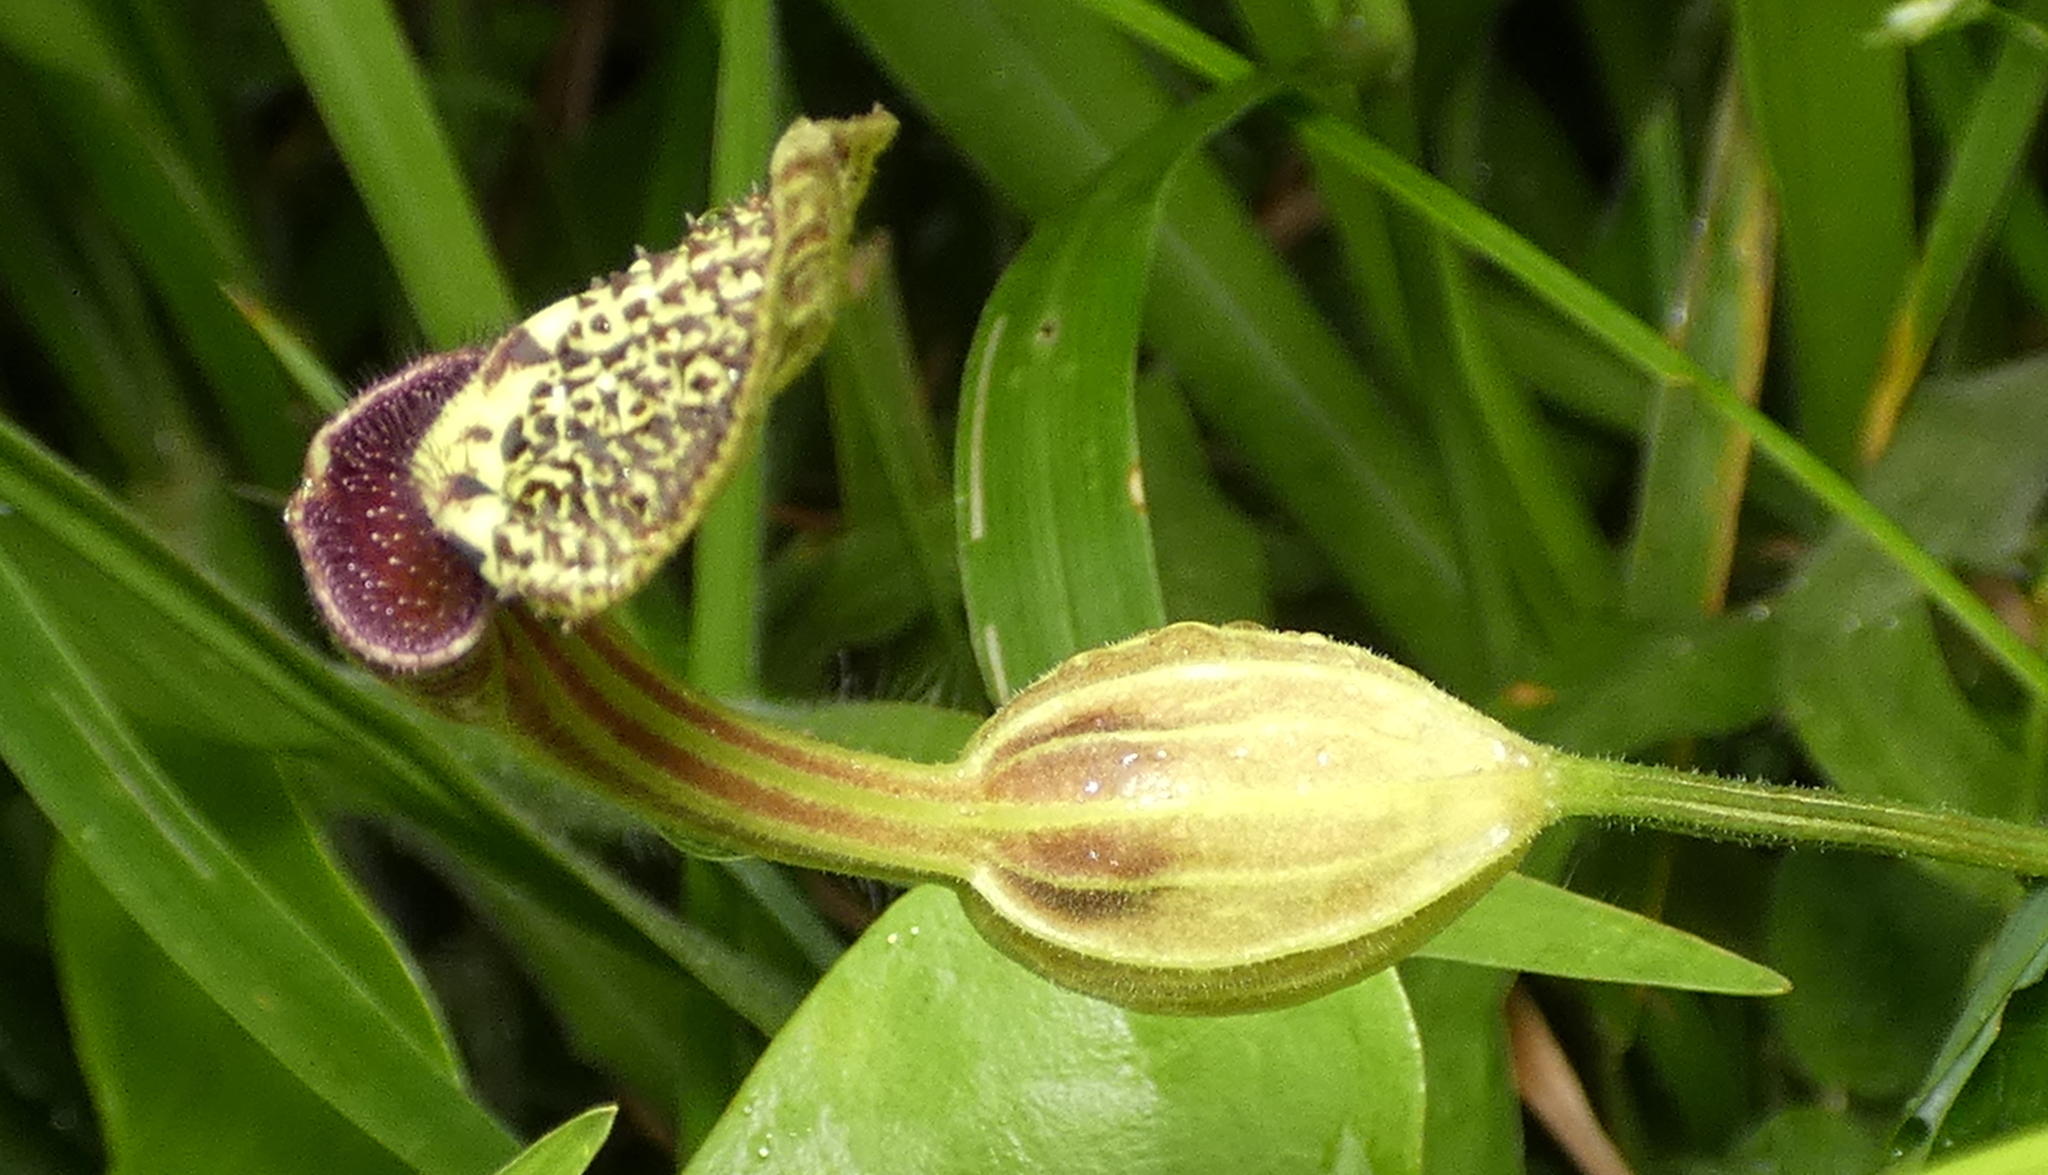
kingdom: Plantae
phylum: Tracheophyta
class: Magnoliopsida
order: Piperales
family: Aristolochiaceae
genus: Aristolochia
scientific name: Aristolochia papillaris
